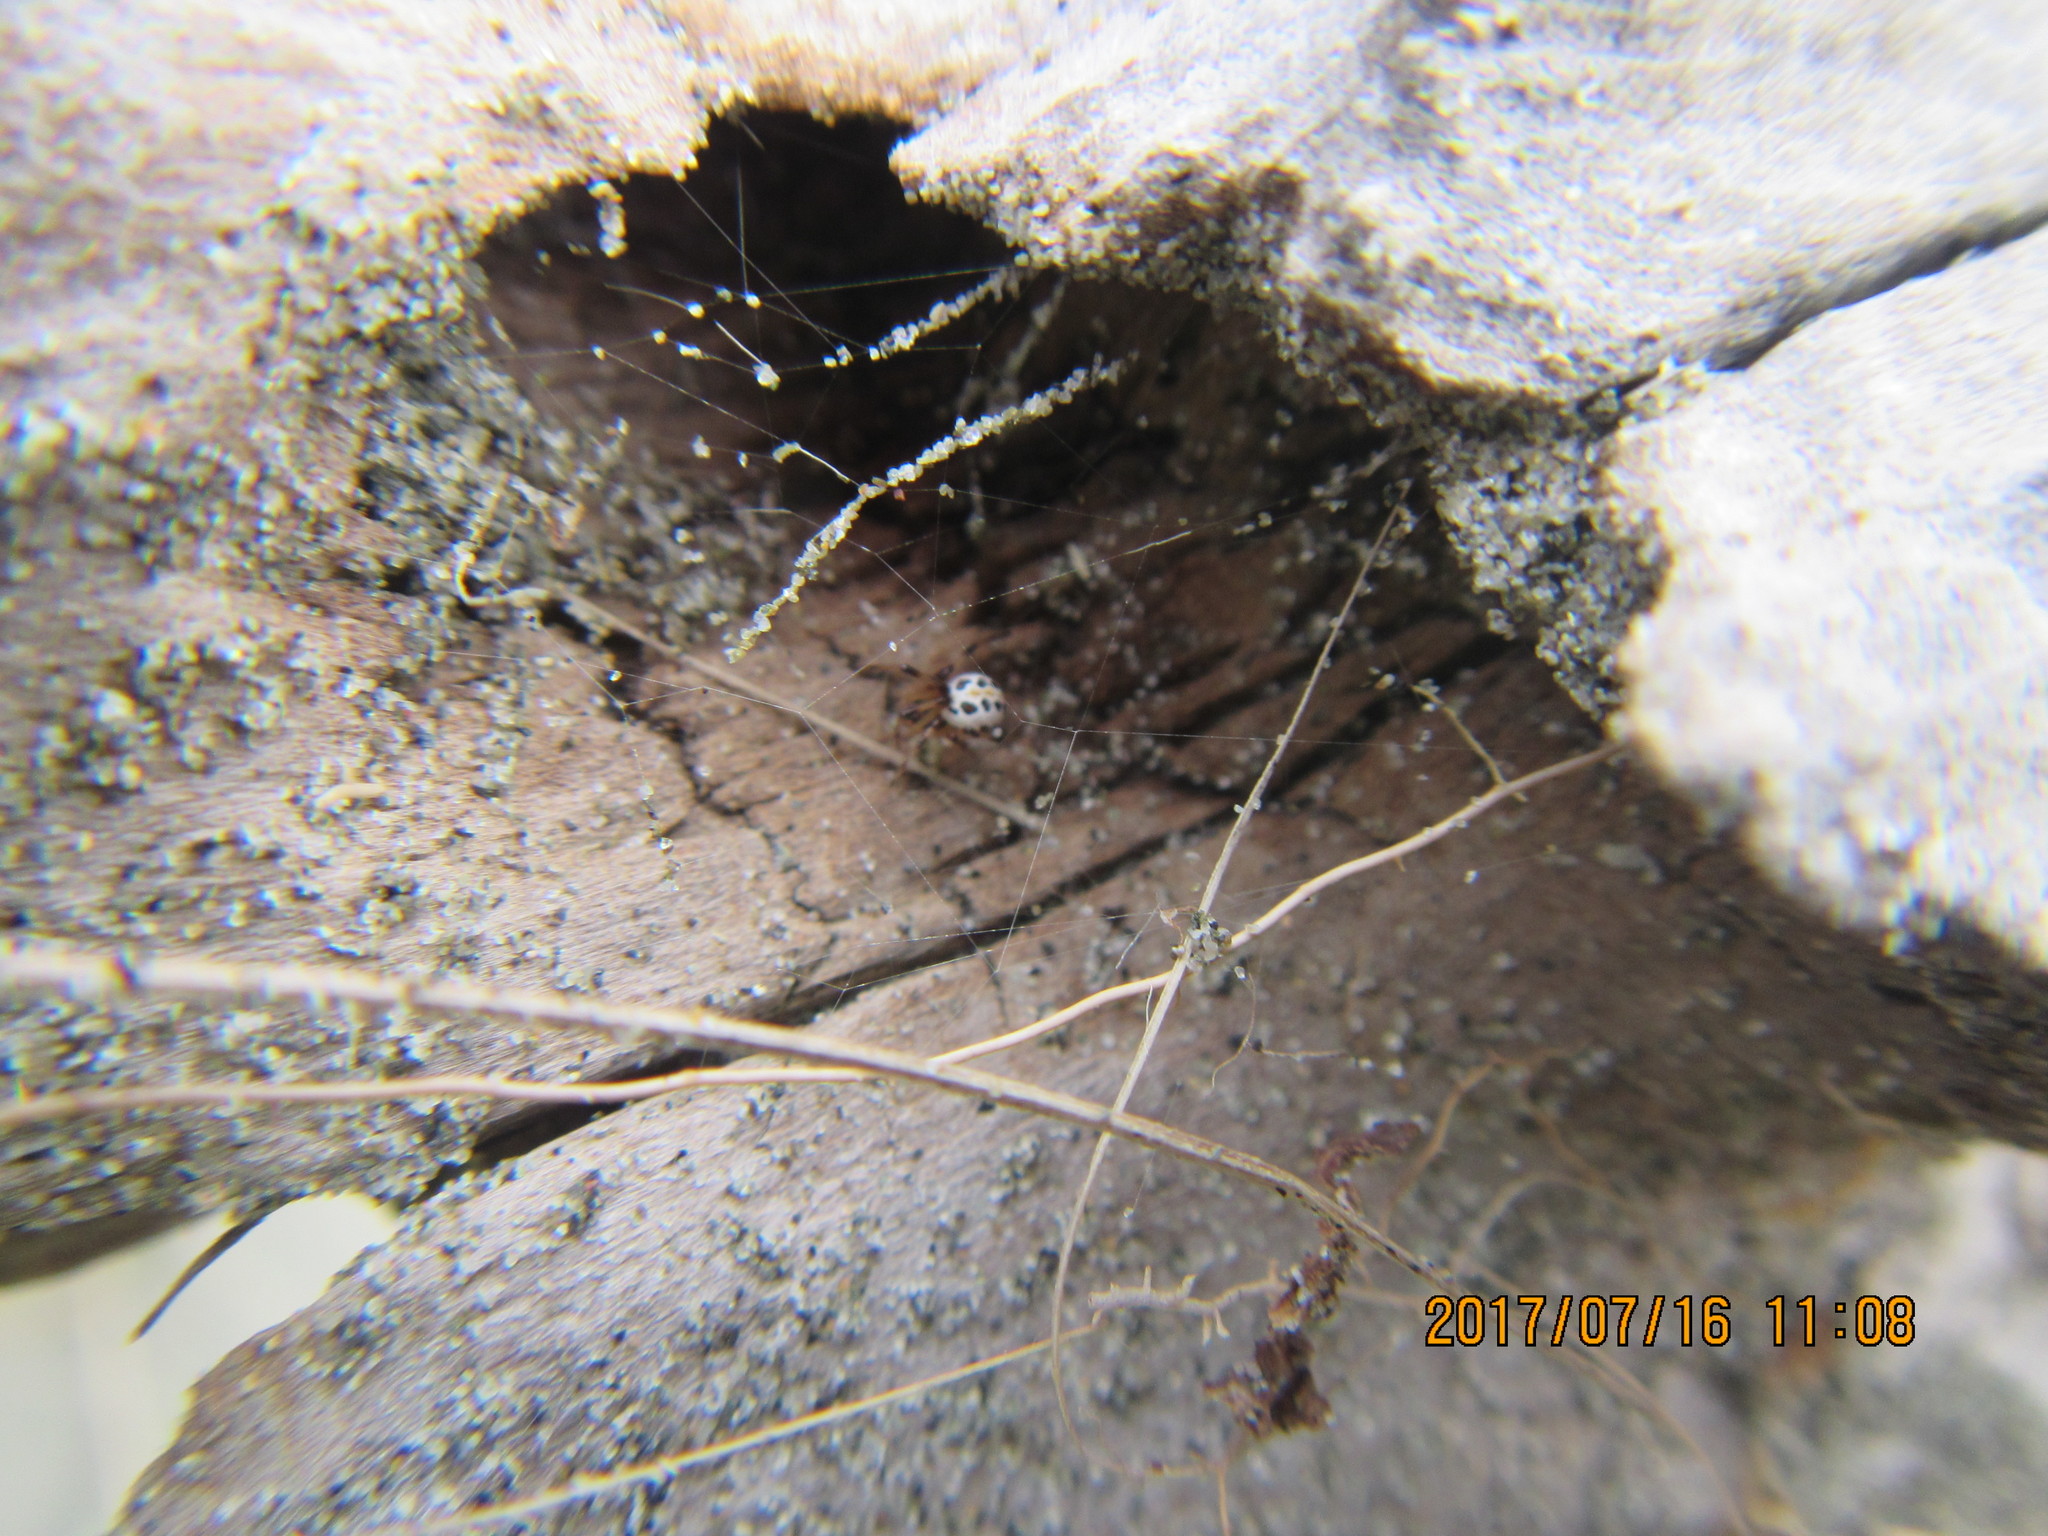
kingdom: Animalia
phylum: Arthropoda
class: Arachnida
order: Araneae
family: Theridiidae
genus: Latrodectus
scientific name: Latrodectus katipo
